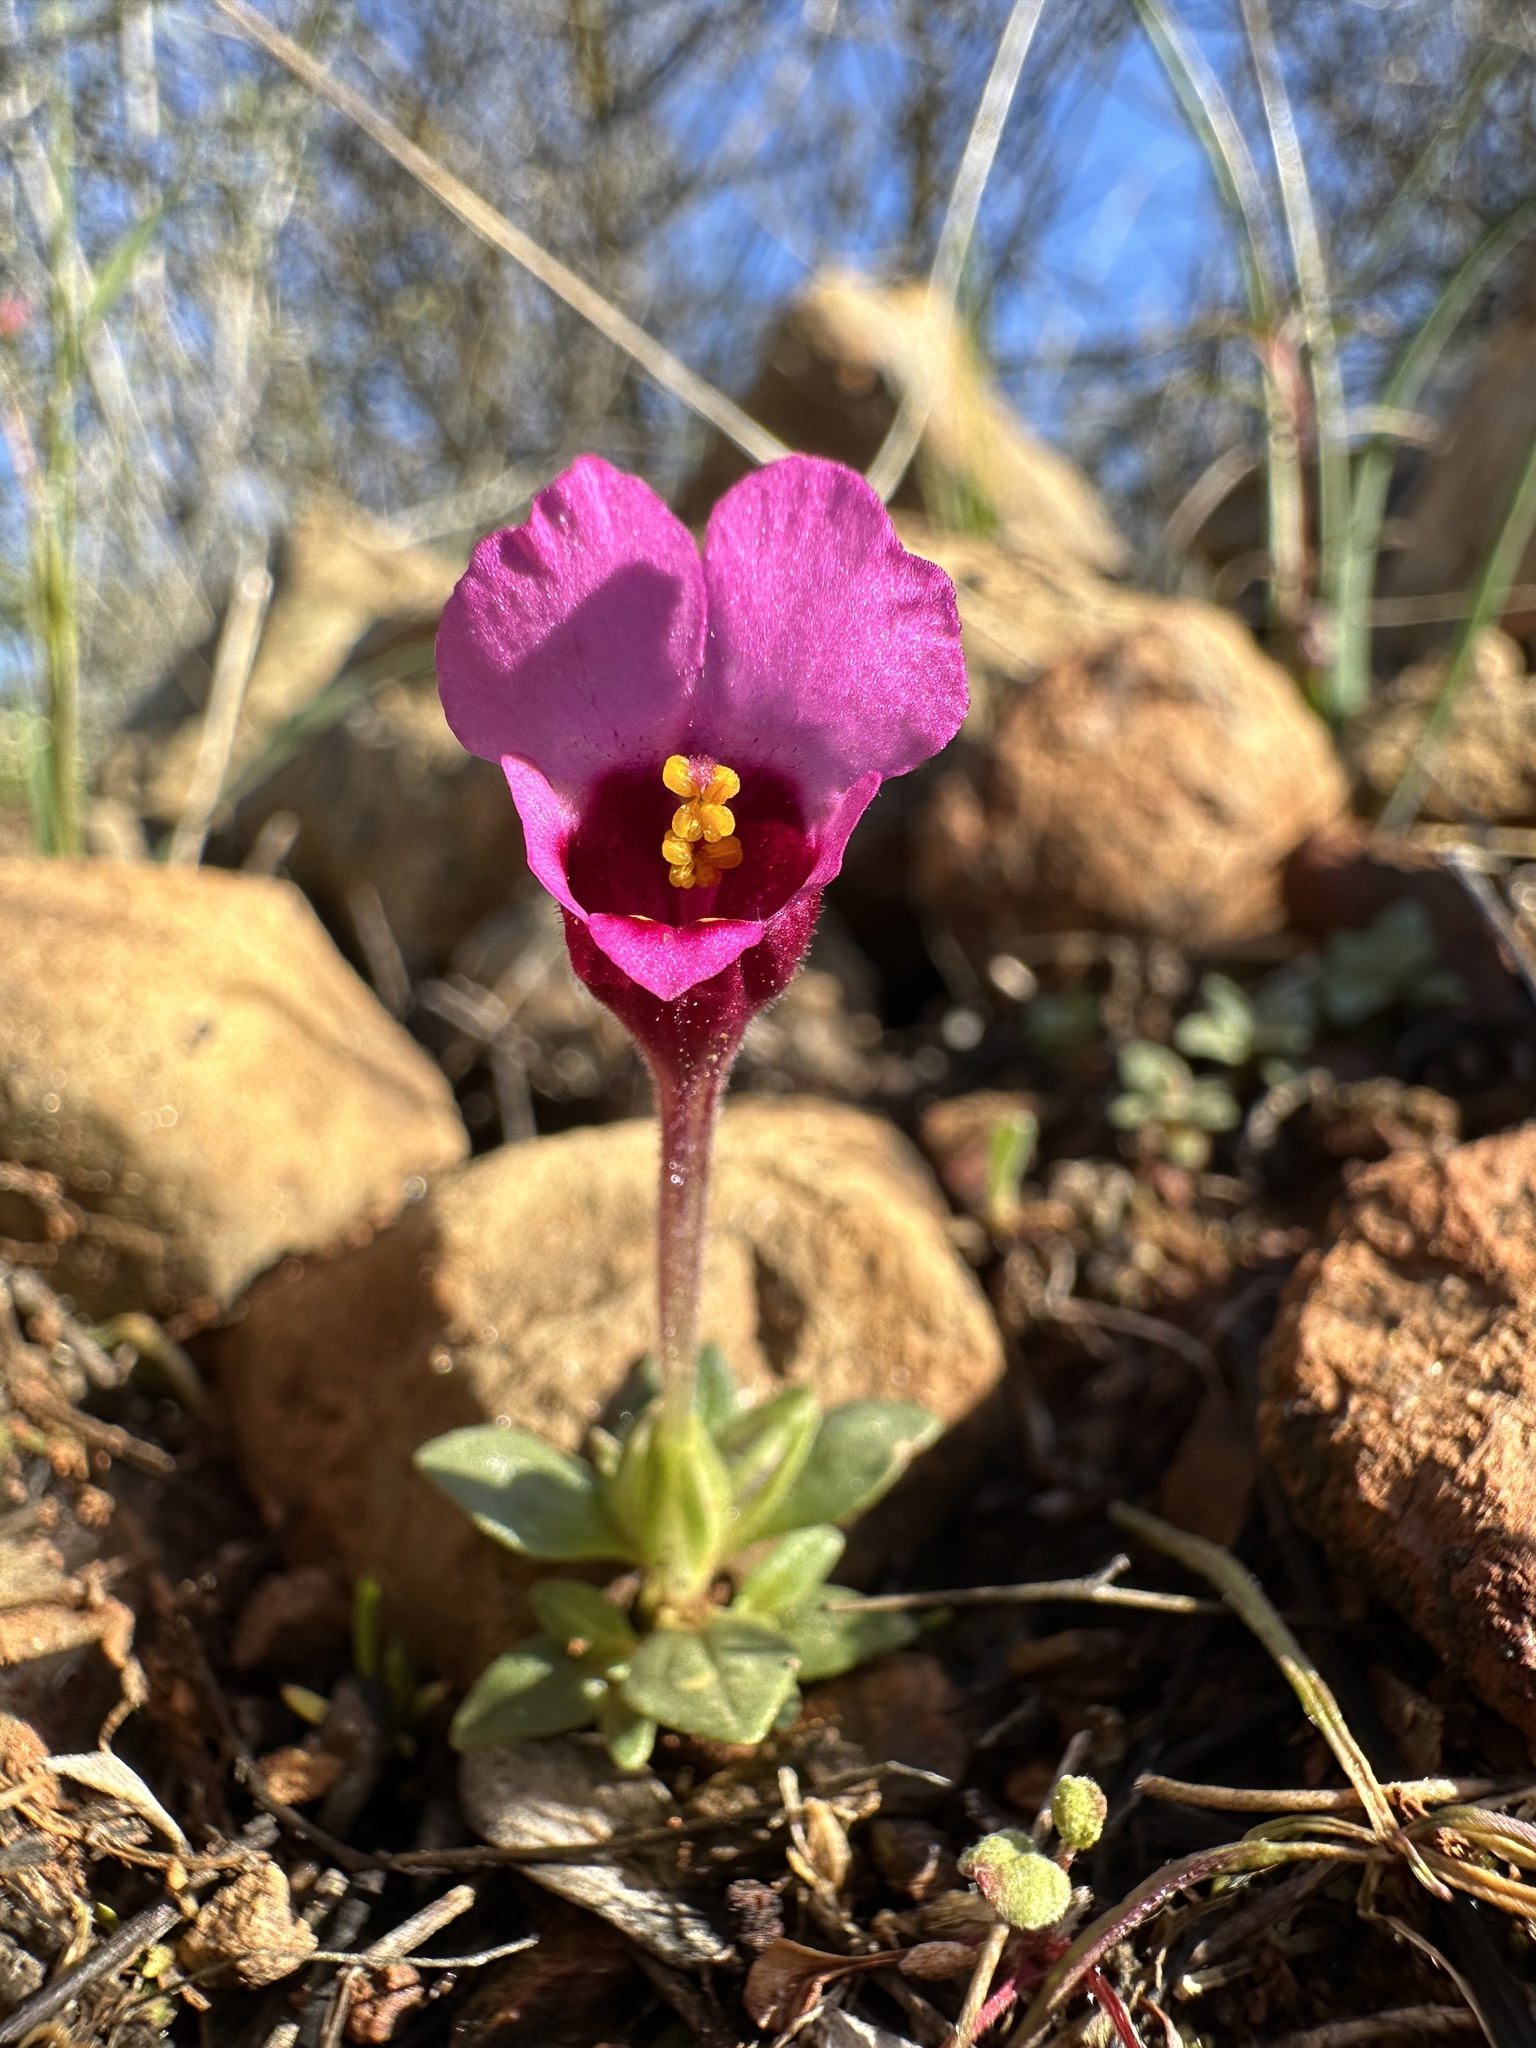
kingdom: Plantae
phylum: Tracheophyta
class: Magnoliopsida
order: Lamiales
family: Phrymaceae
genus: Diplacus
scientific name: Diplacus douglasii
